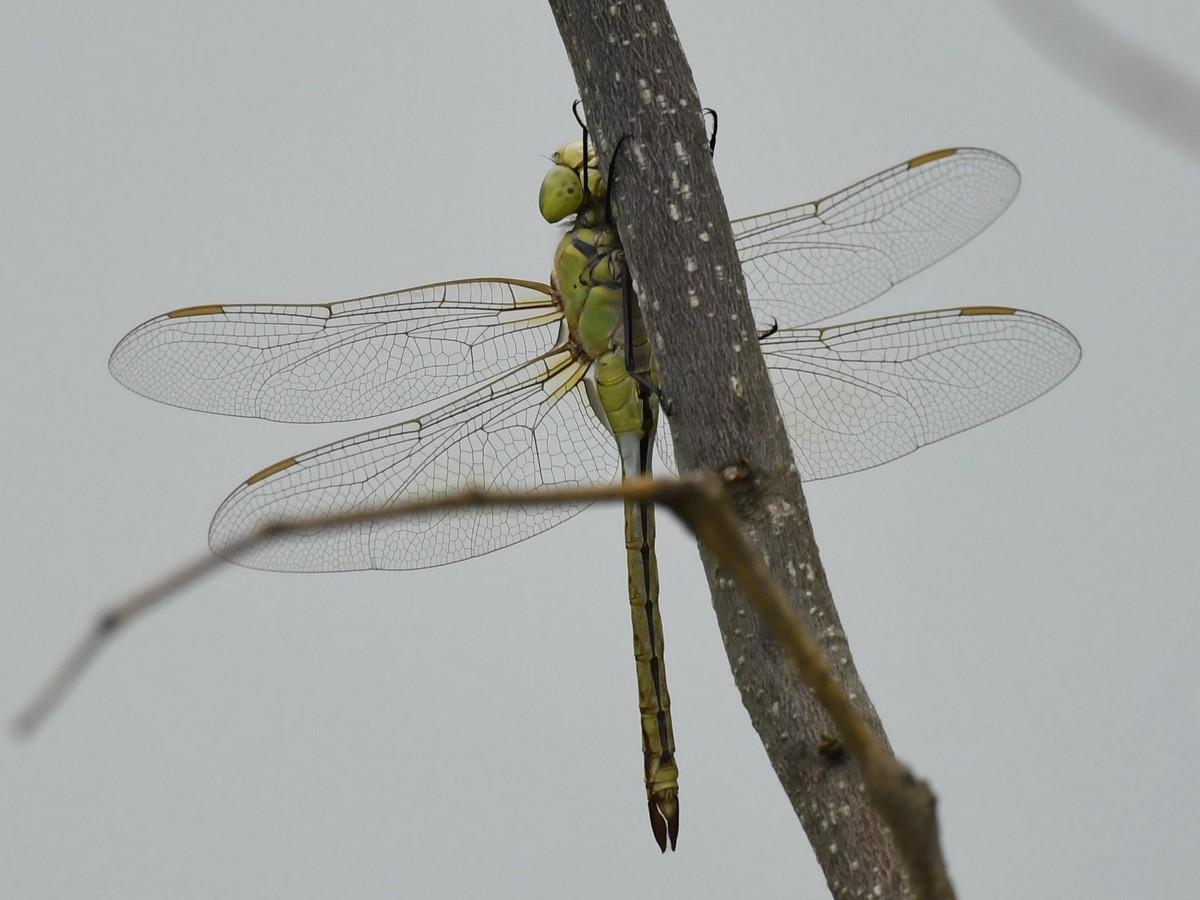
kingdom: Animalia
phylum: Arthropoda
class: Insecta
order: Odonata
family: Aeshnidae
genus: Anax
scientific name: Anax ephippiger
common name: Vagrant emperor
